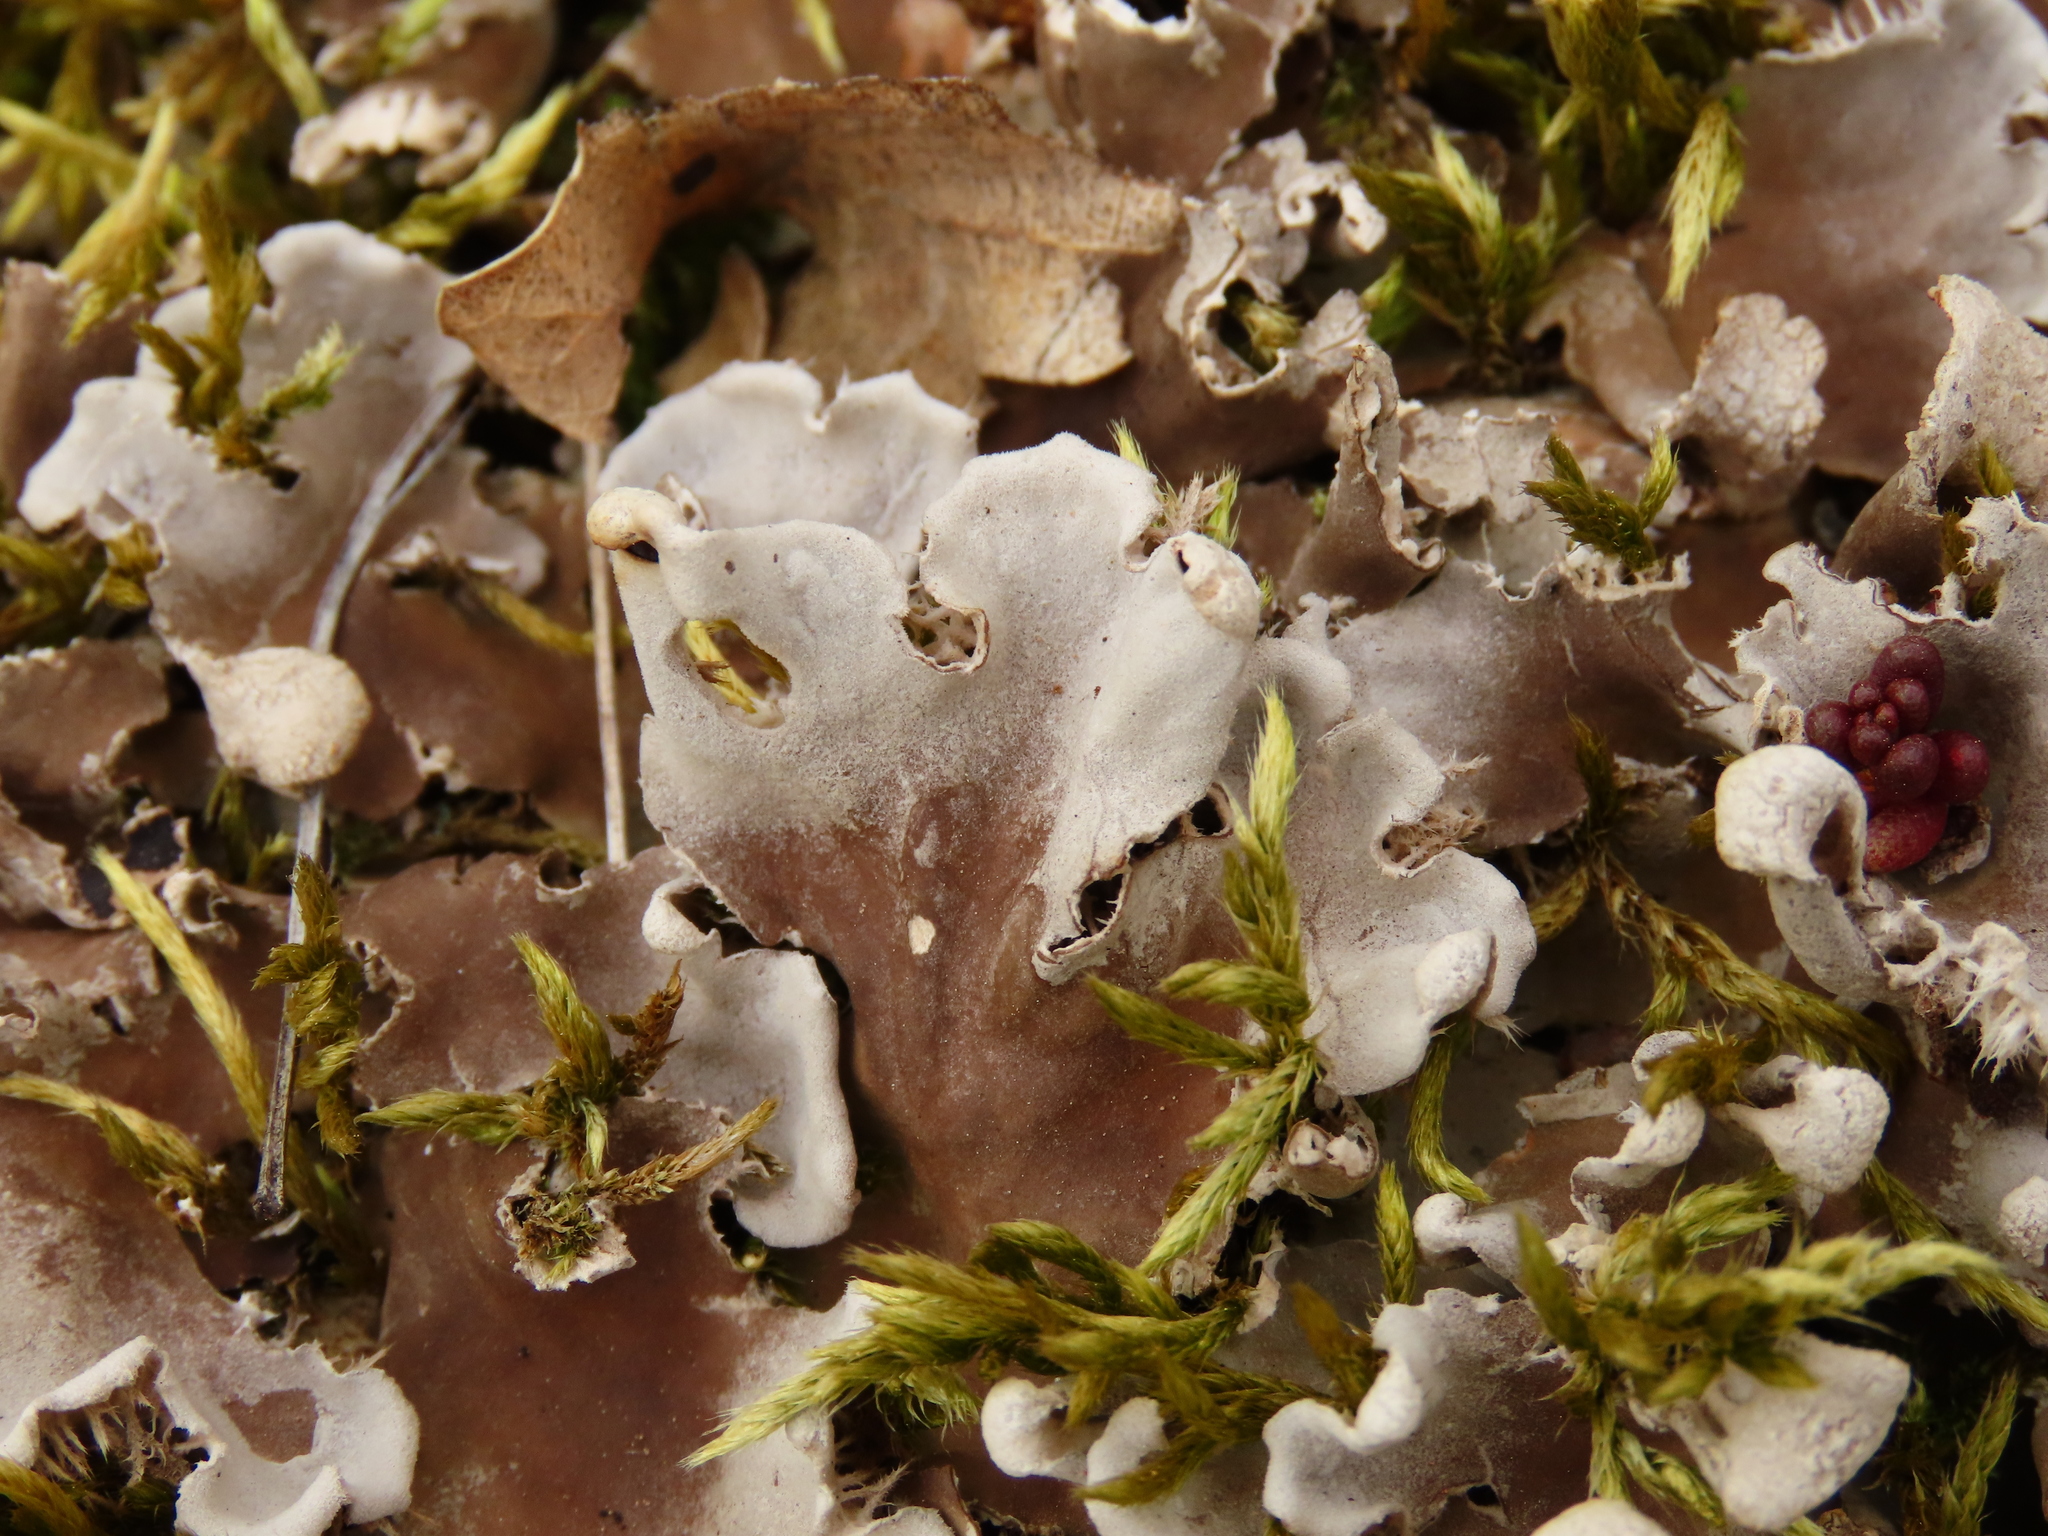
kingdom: Fungi
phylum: Ascomycota
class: Lecanoromycetes
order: Peltigerales
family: Peltigeraceae
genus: Peltigera
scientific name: Peltigera canina
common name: Dog pelt lichen
